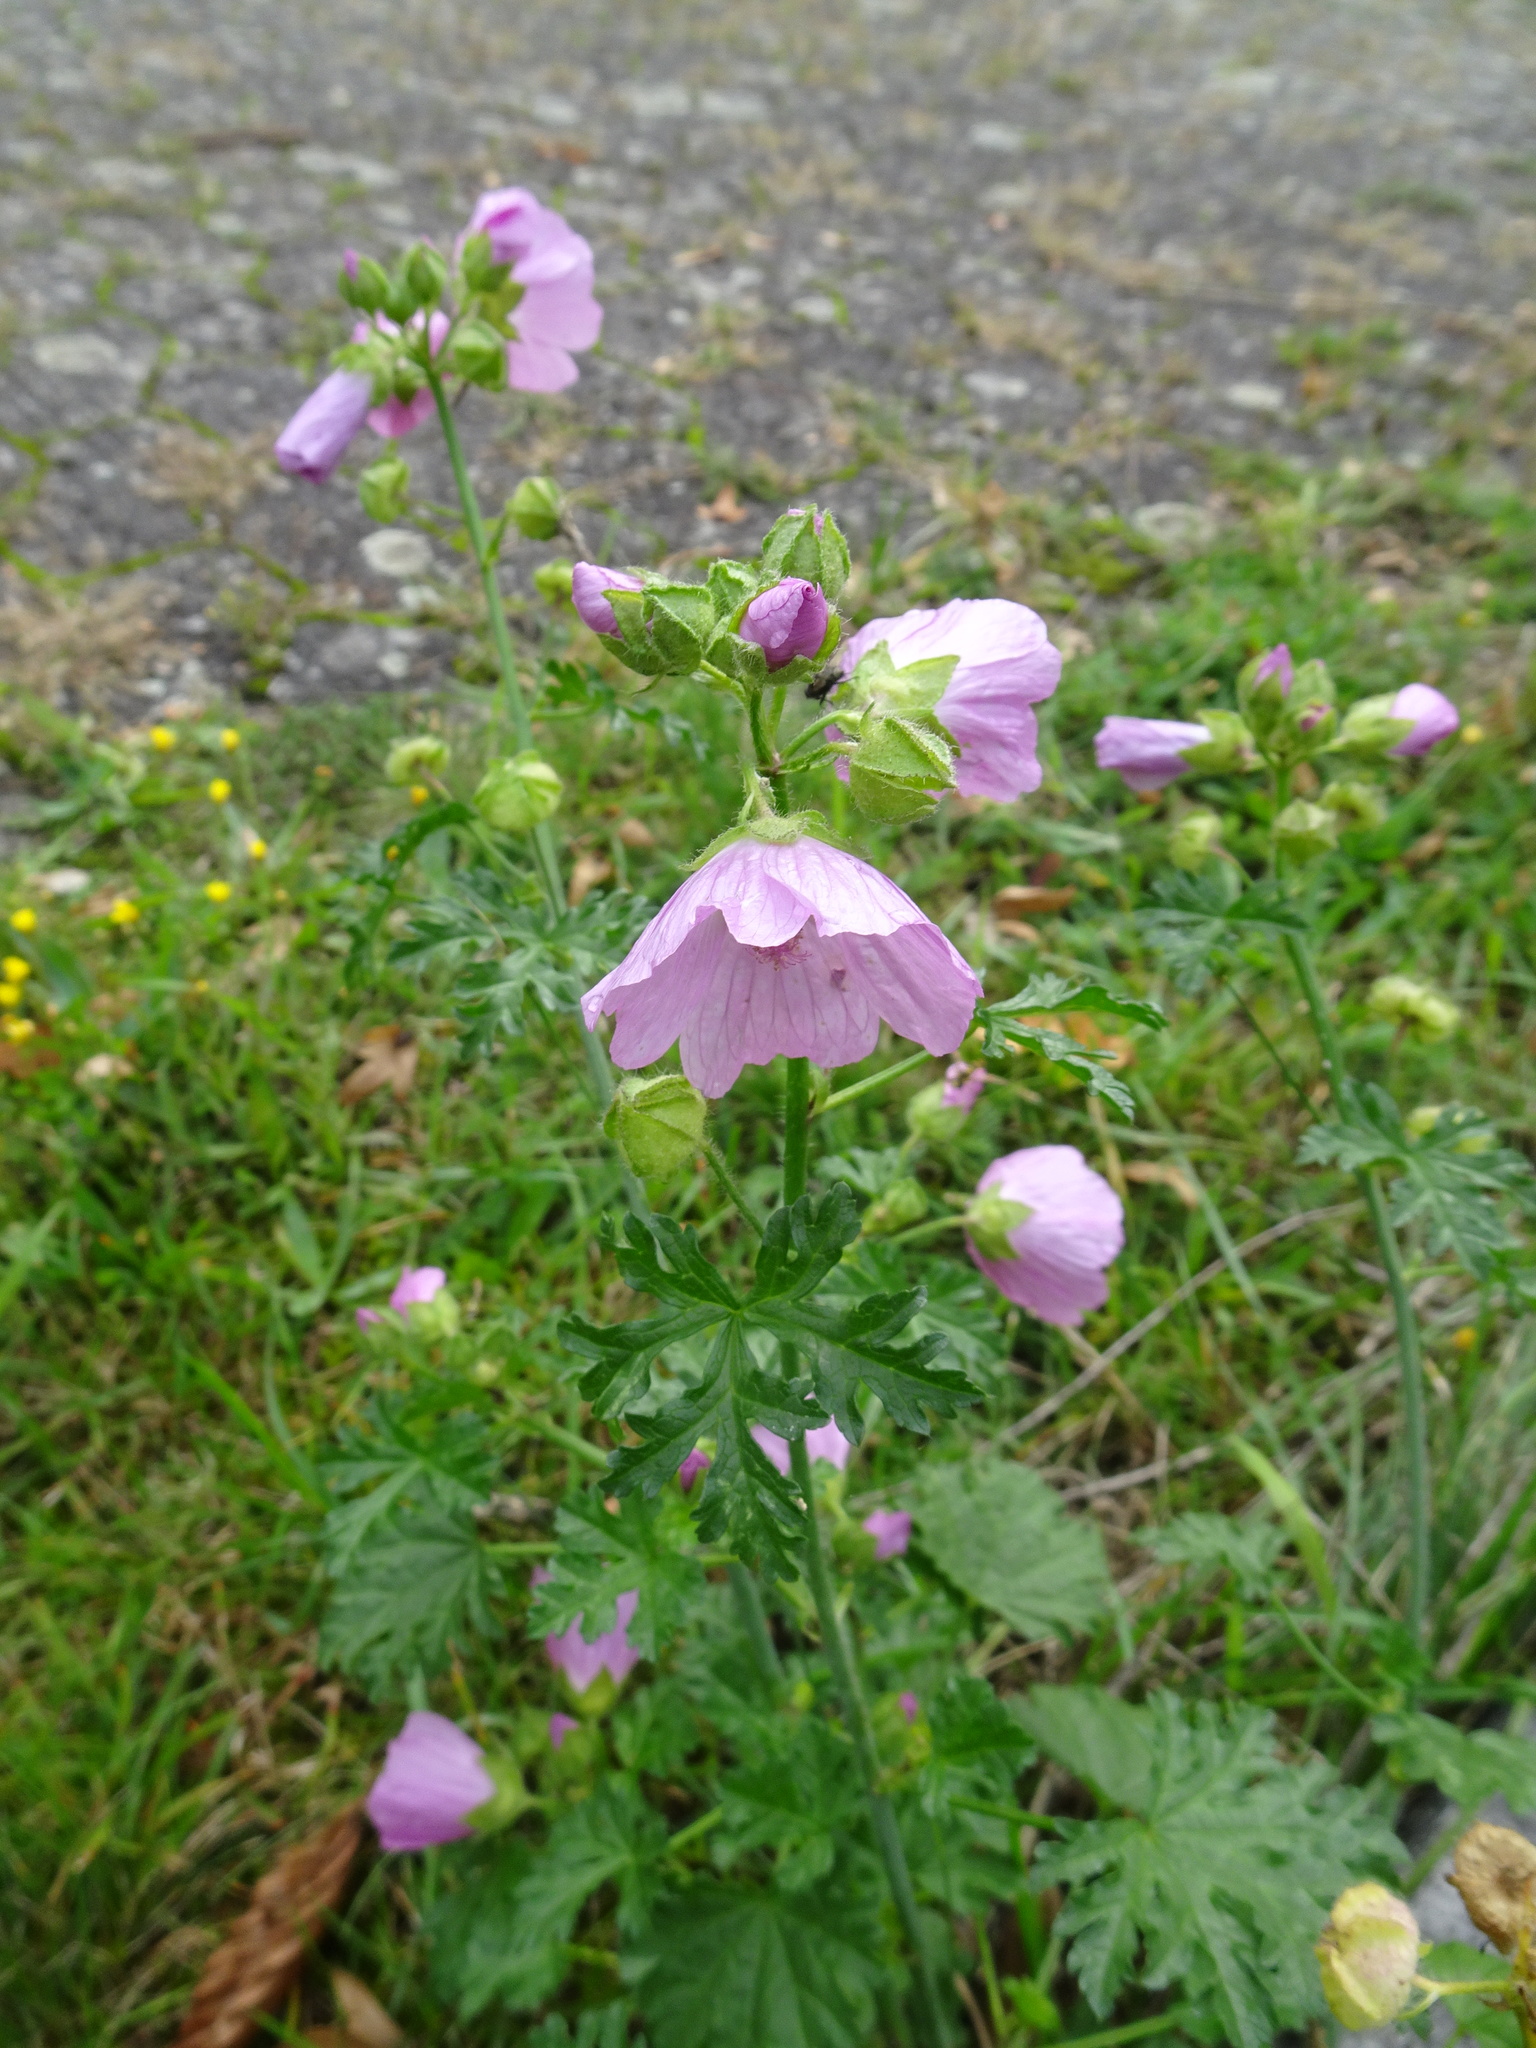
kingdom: Plantae
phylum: Tracheophyta
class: Magnoliopsida
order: Malvales
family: Malvaceae
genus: Malva
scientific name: Malva moschata
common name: Musk mallow
